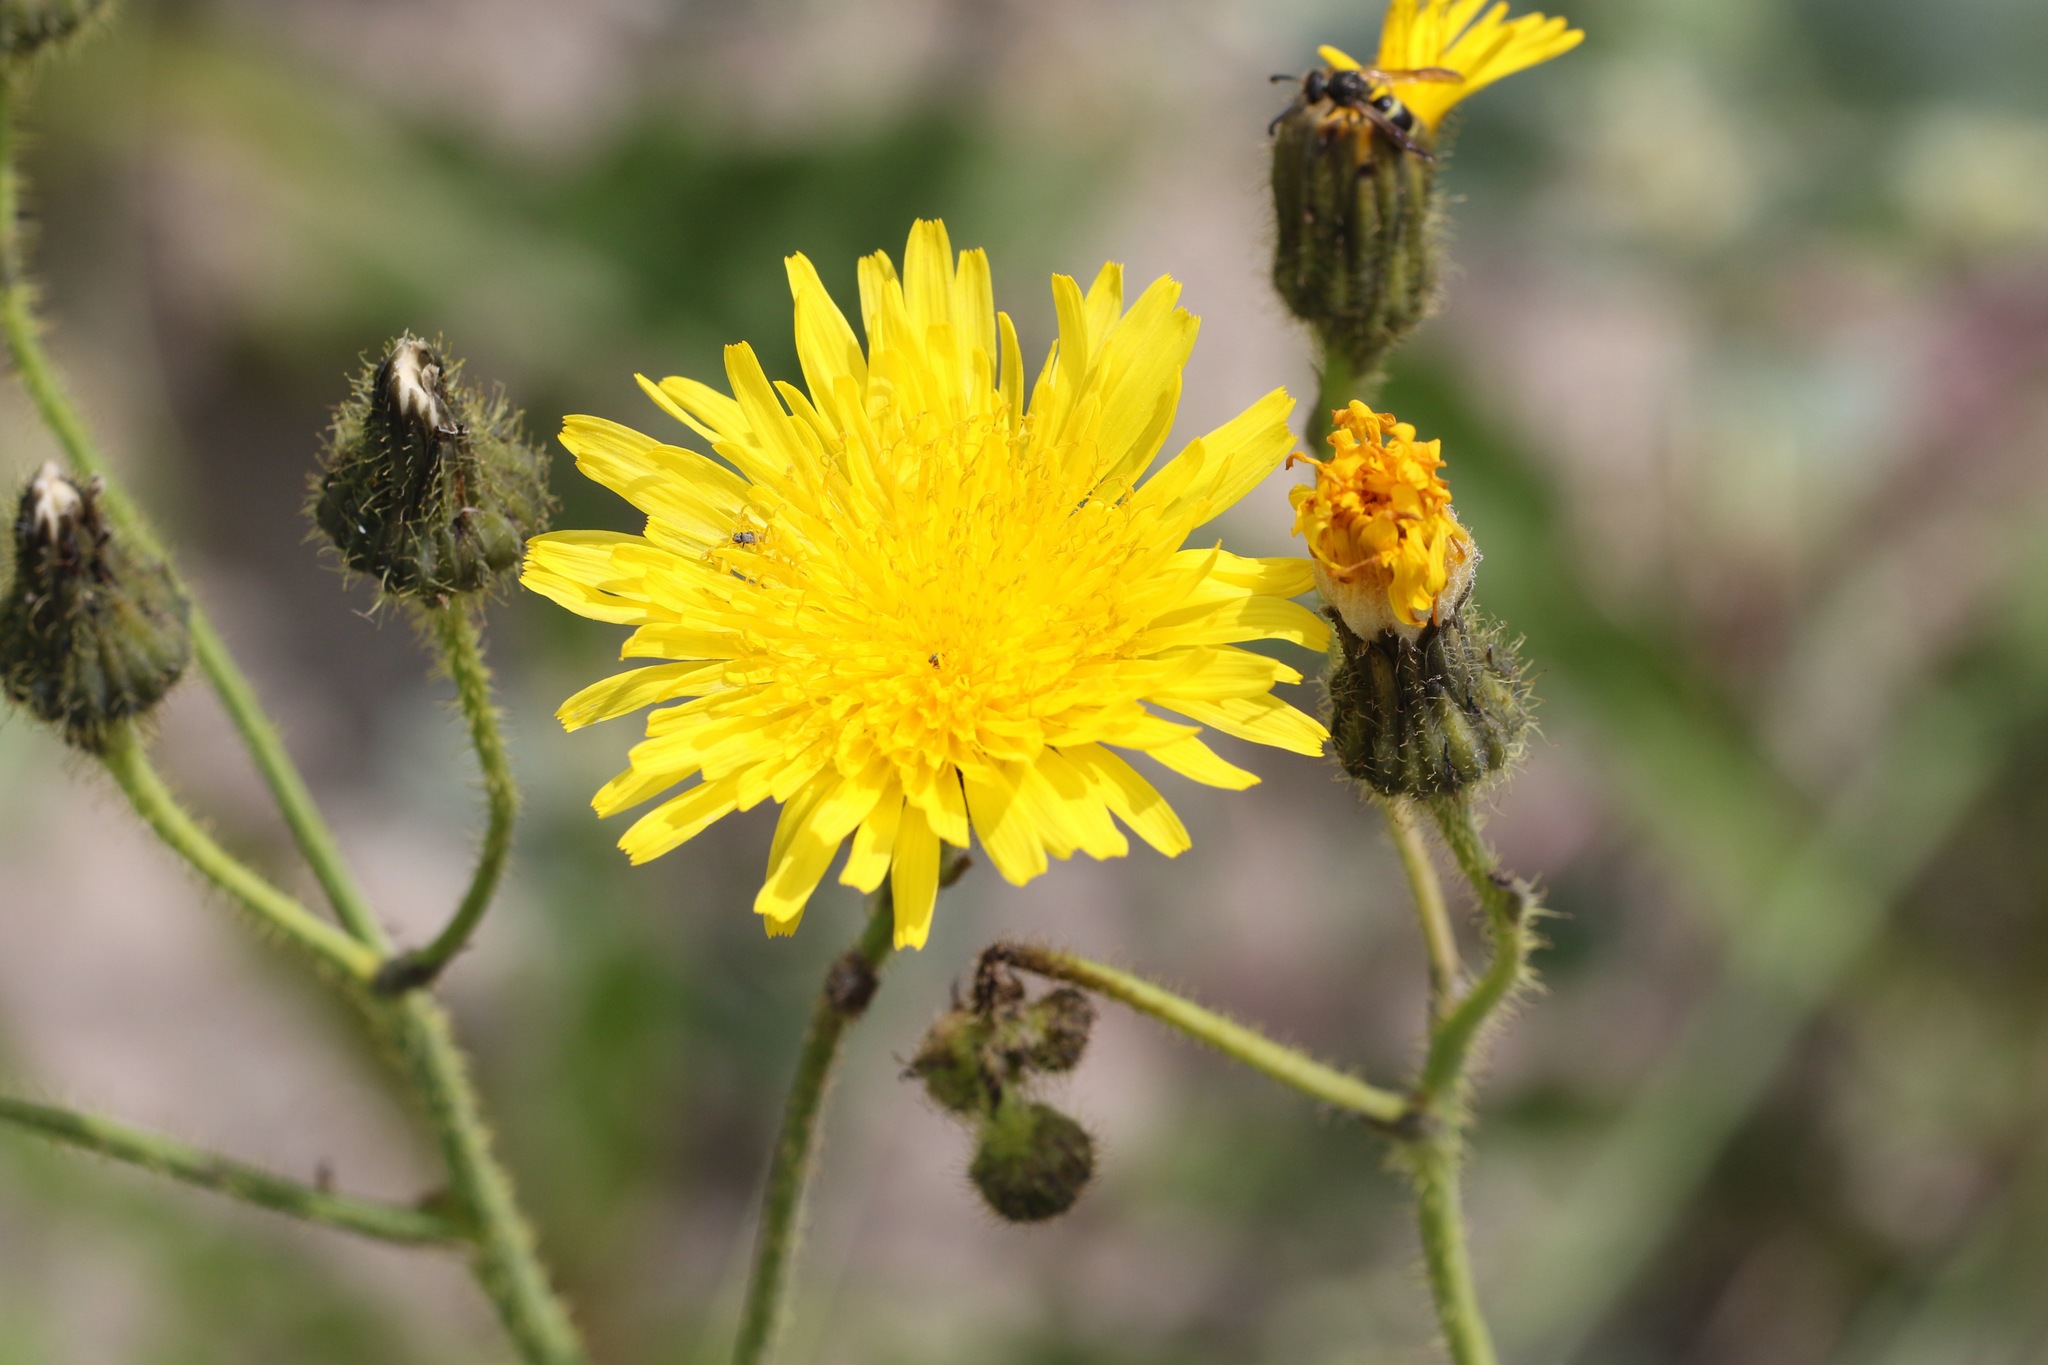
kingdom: Plantae
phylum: Tracheophyta
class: Magnoliopsida
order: Asterales
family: Asteraceae
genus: Sonchus
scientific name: Sonchus arvensis
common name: Perennial sow-thistle
